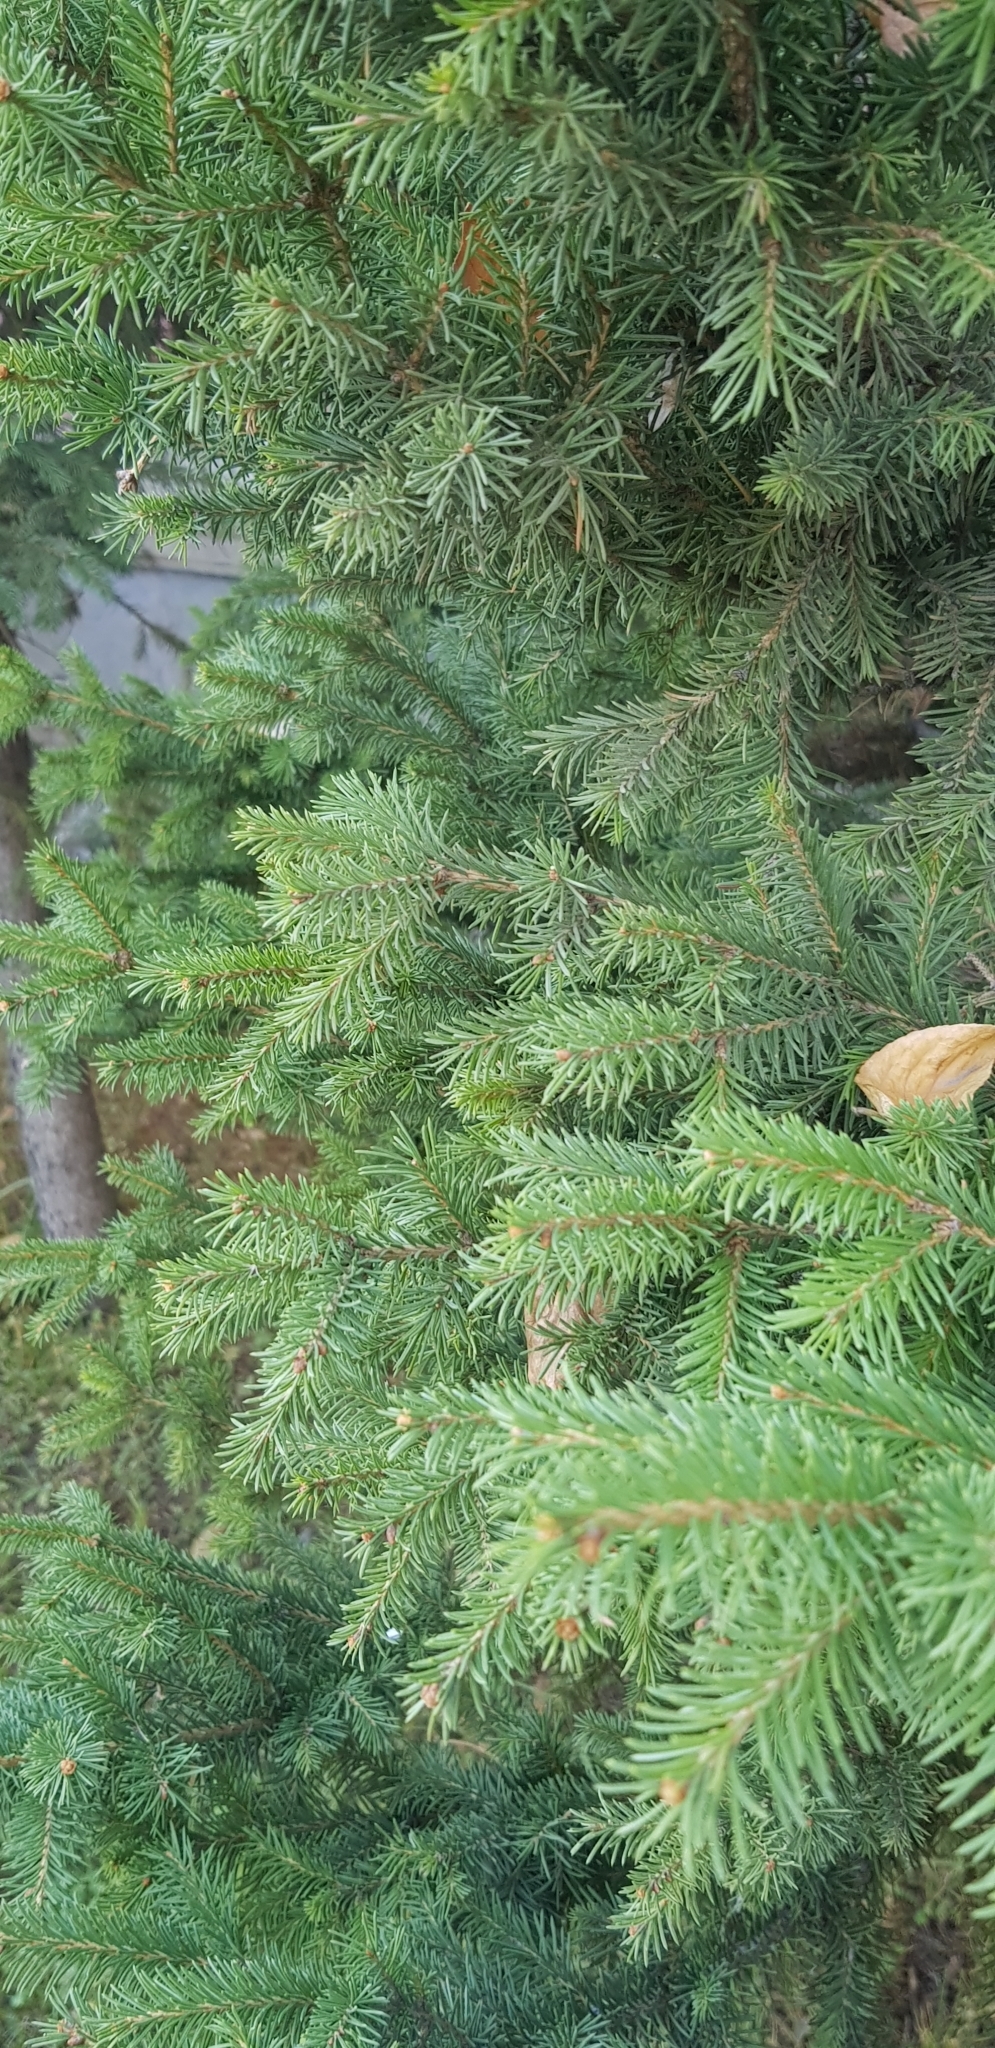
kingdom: Plantae
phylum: Tracheophyta
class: Pinopsida
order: Pinales
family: Pinaceae
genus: Picea
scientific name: Picea obovata
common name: Siberian spruce
